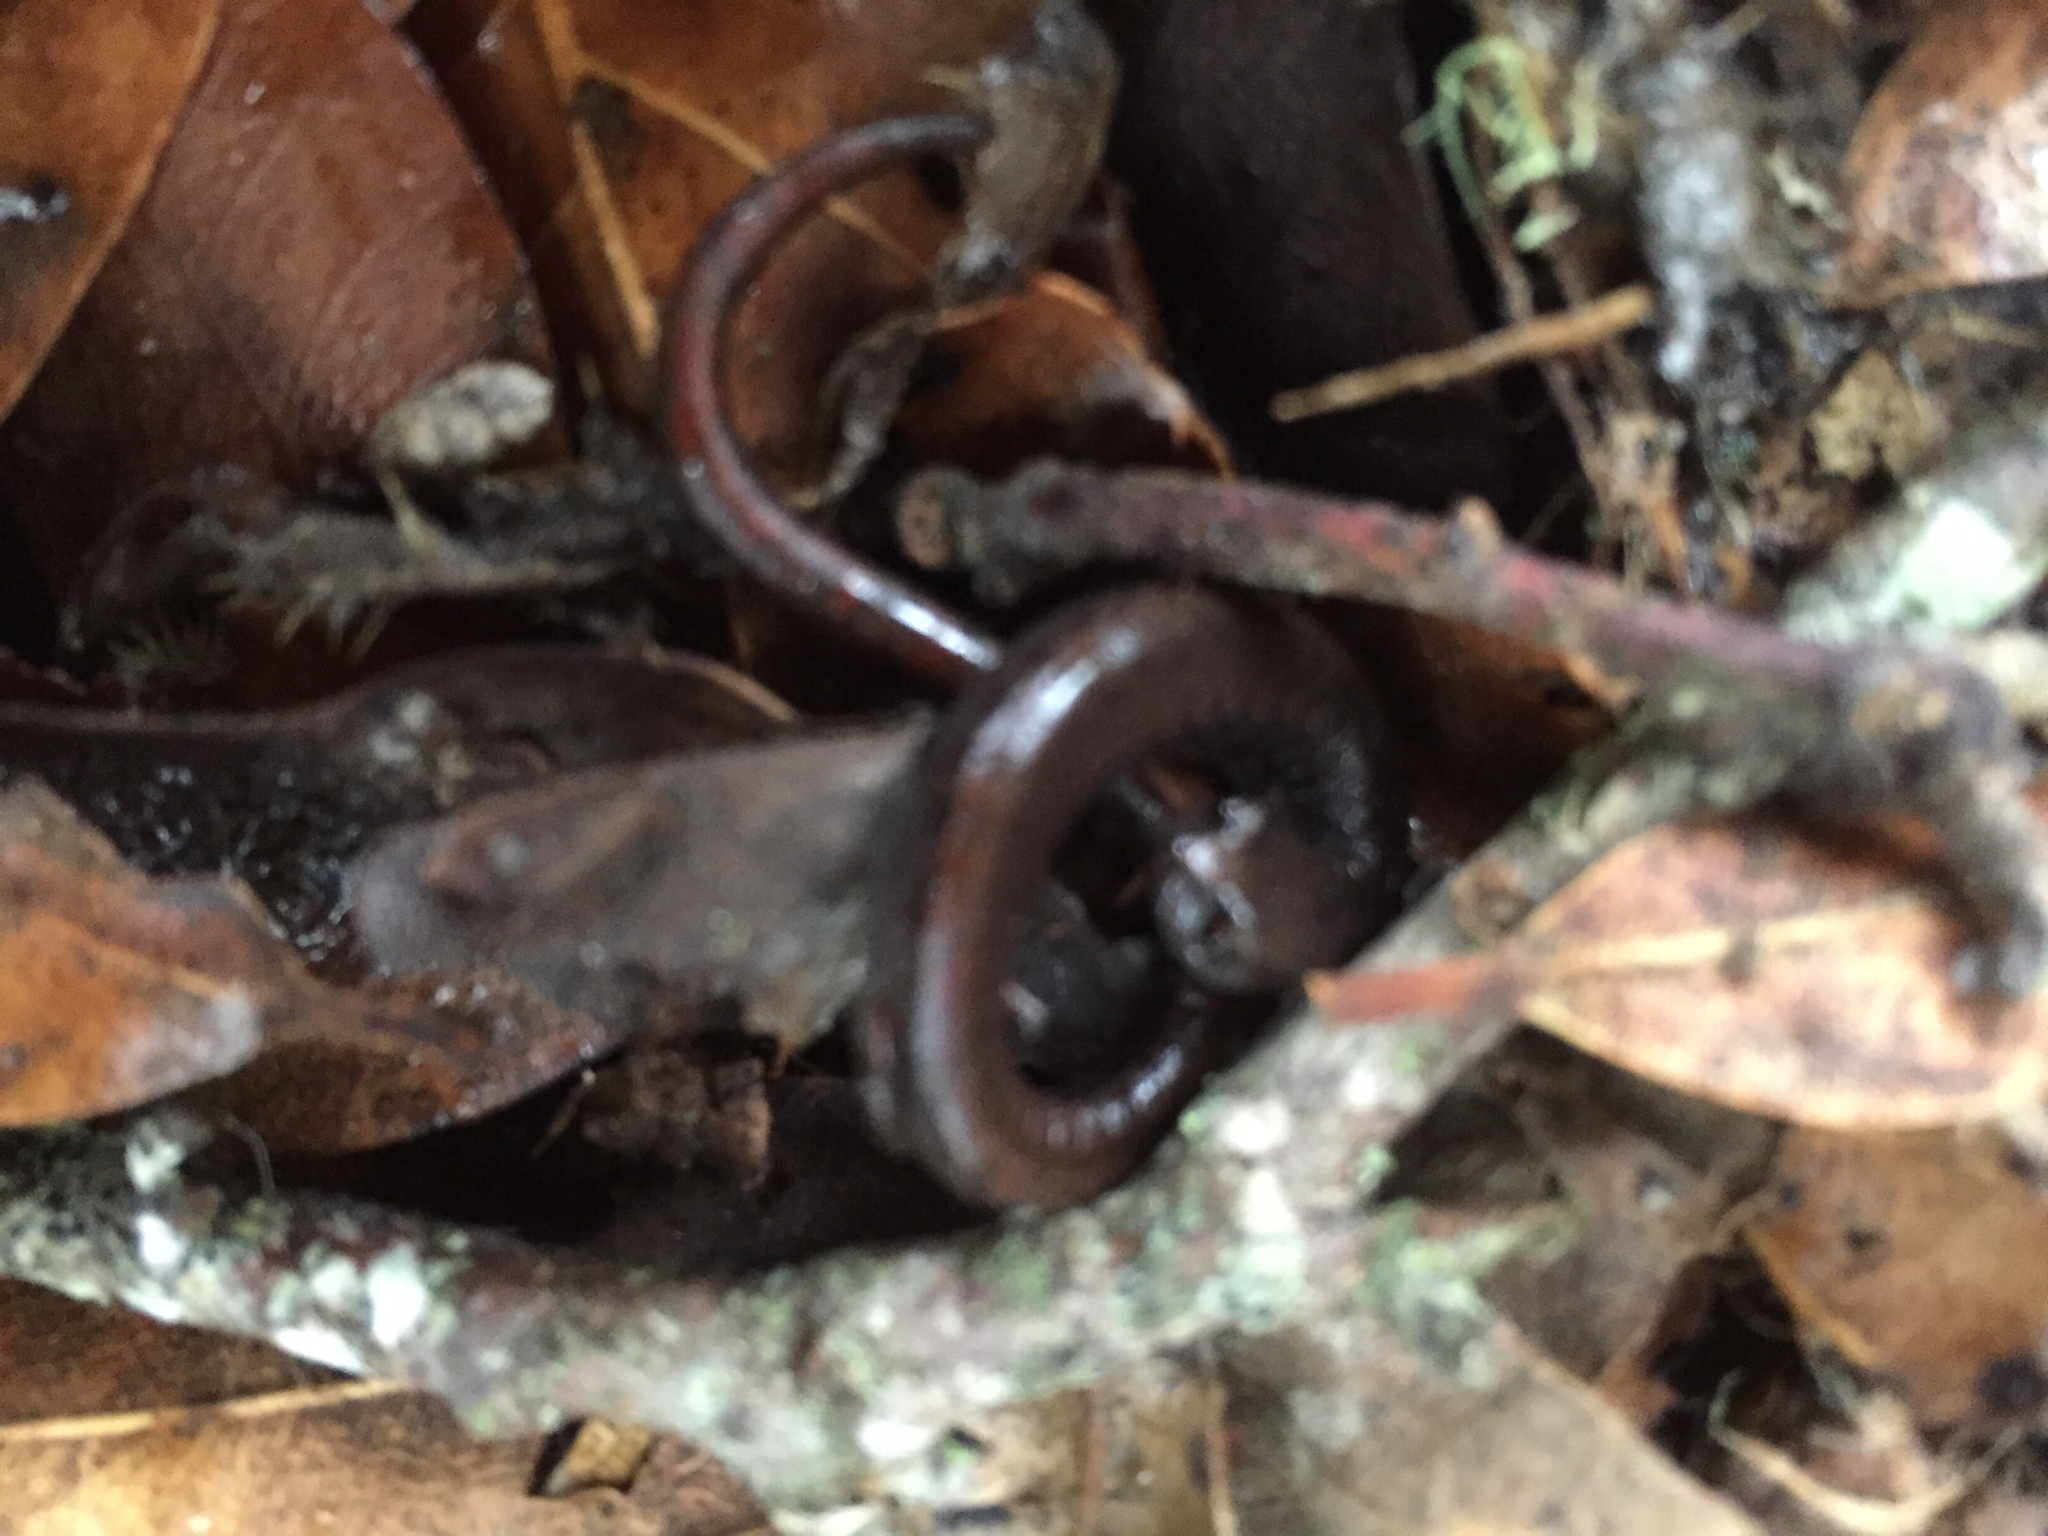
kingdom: Animalia
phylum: Chordata
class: Amphibia
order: Caudata
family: Plethodontidae
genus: Batrachoseps
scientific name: Batrachoseps attenuatus
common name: California slender salamander
